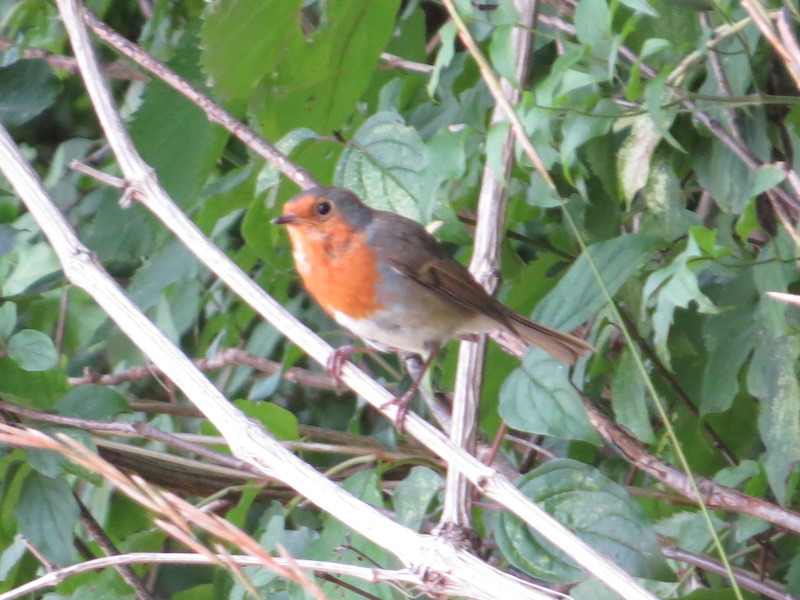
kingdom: Animalia
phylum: Chordata
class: Aves
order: Passeriformes
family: Muscicapidae
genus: Erithacus
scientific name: Erithacus rubecula
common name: European robin
